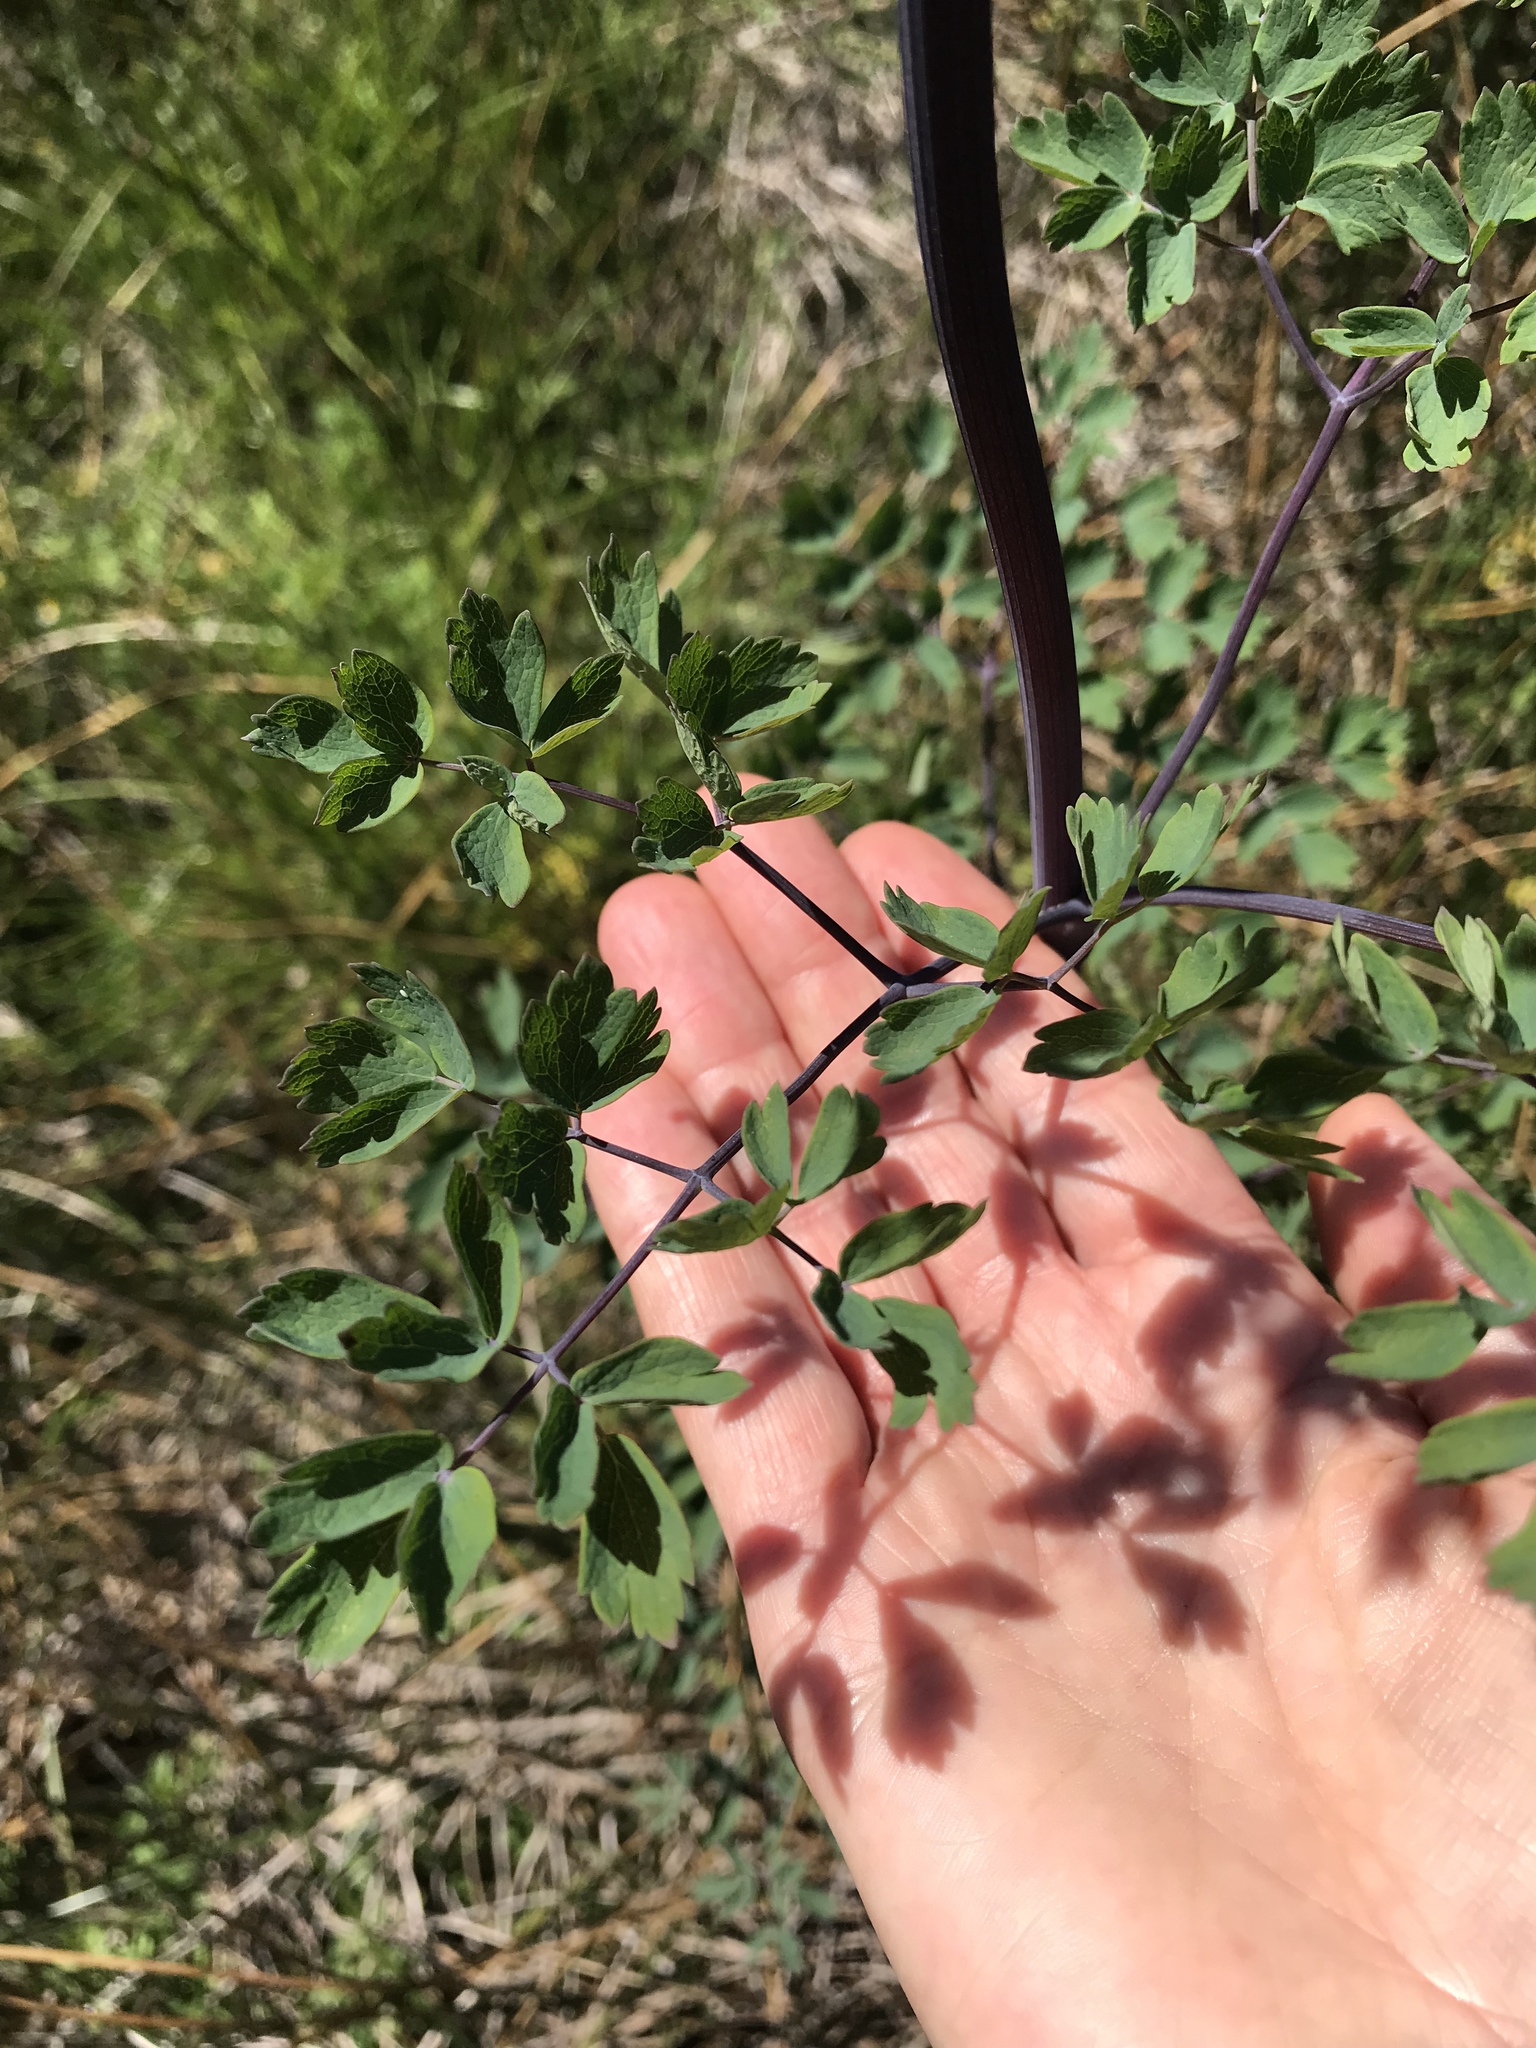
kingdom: Plantae
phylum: Tracheophyta
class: Magnoliopsida
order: Ranunculales
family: Ranunculaceae
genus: Thalictrum
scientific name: Thalictrum fendleri
